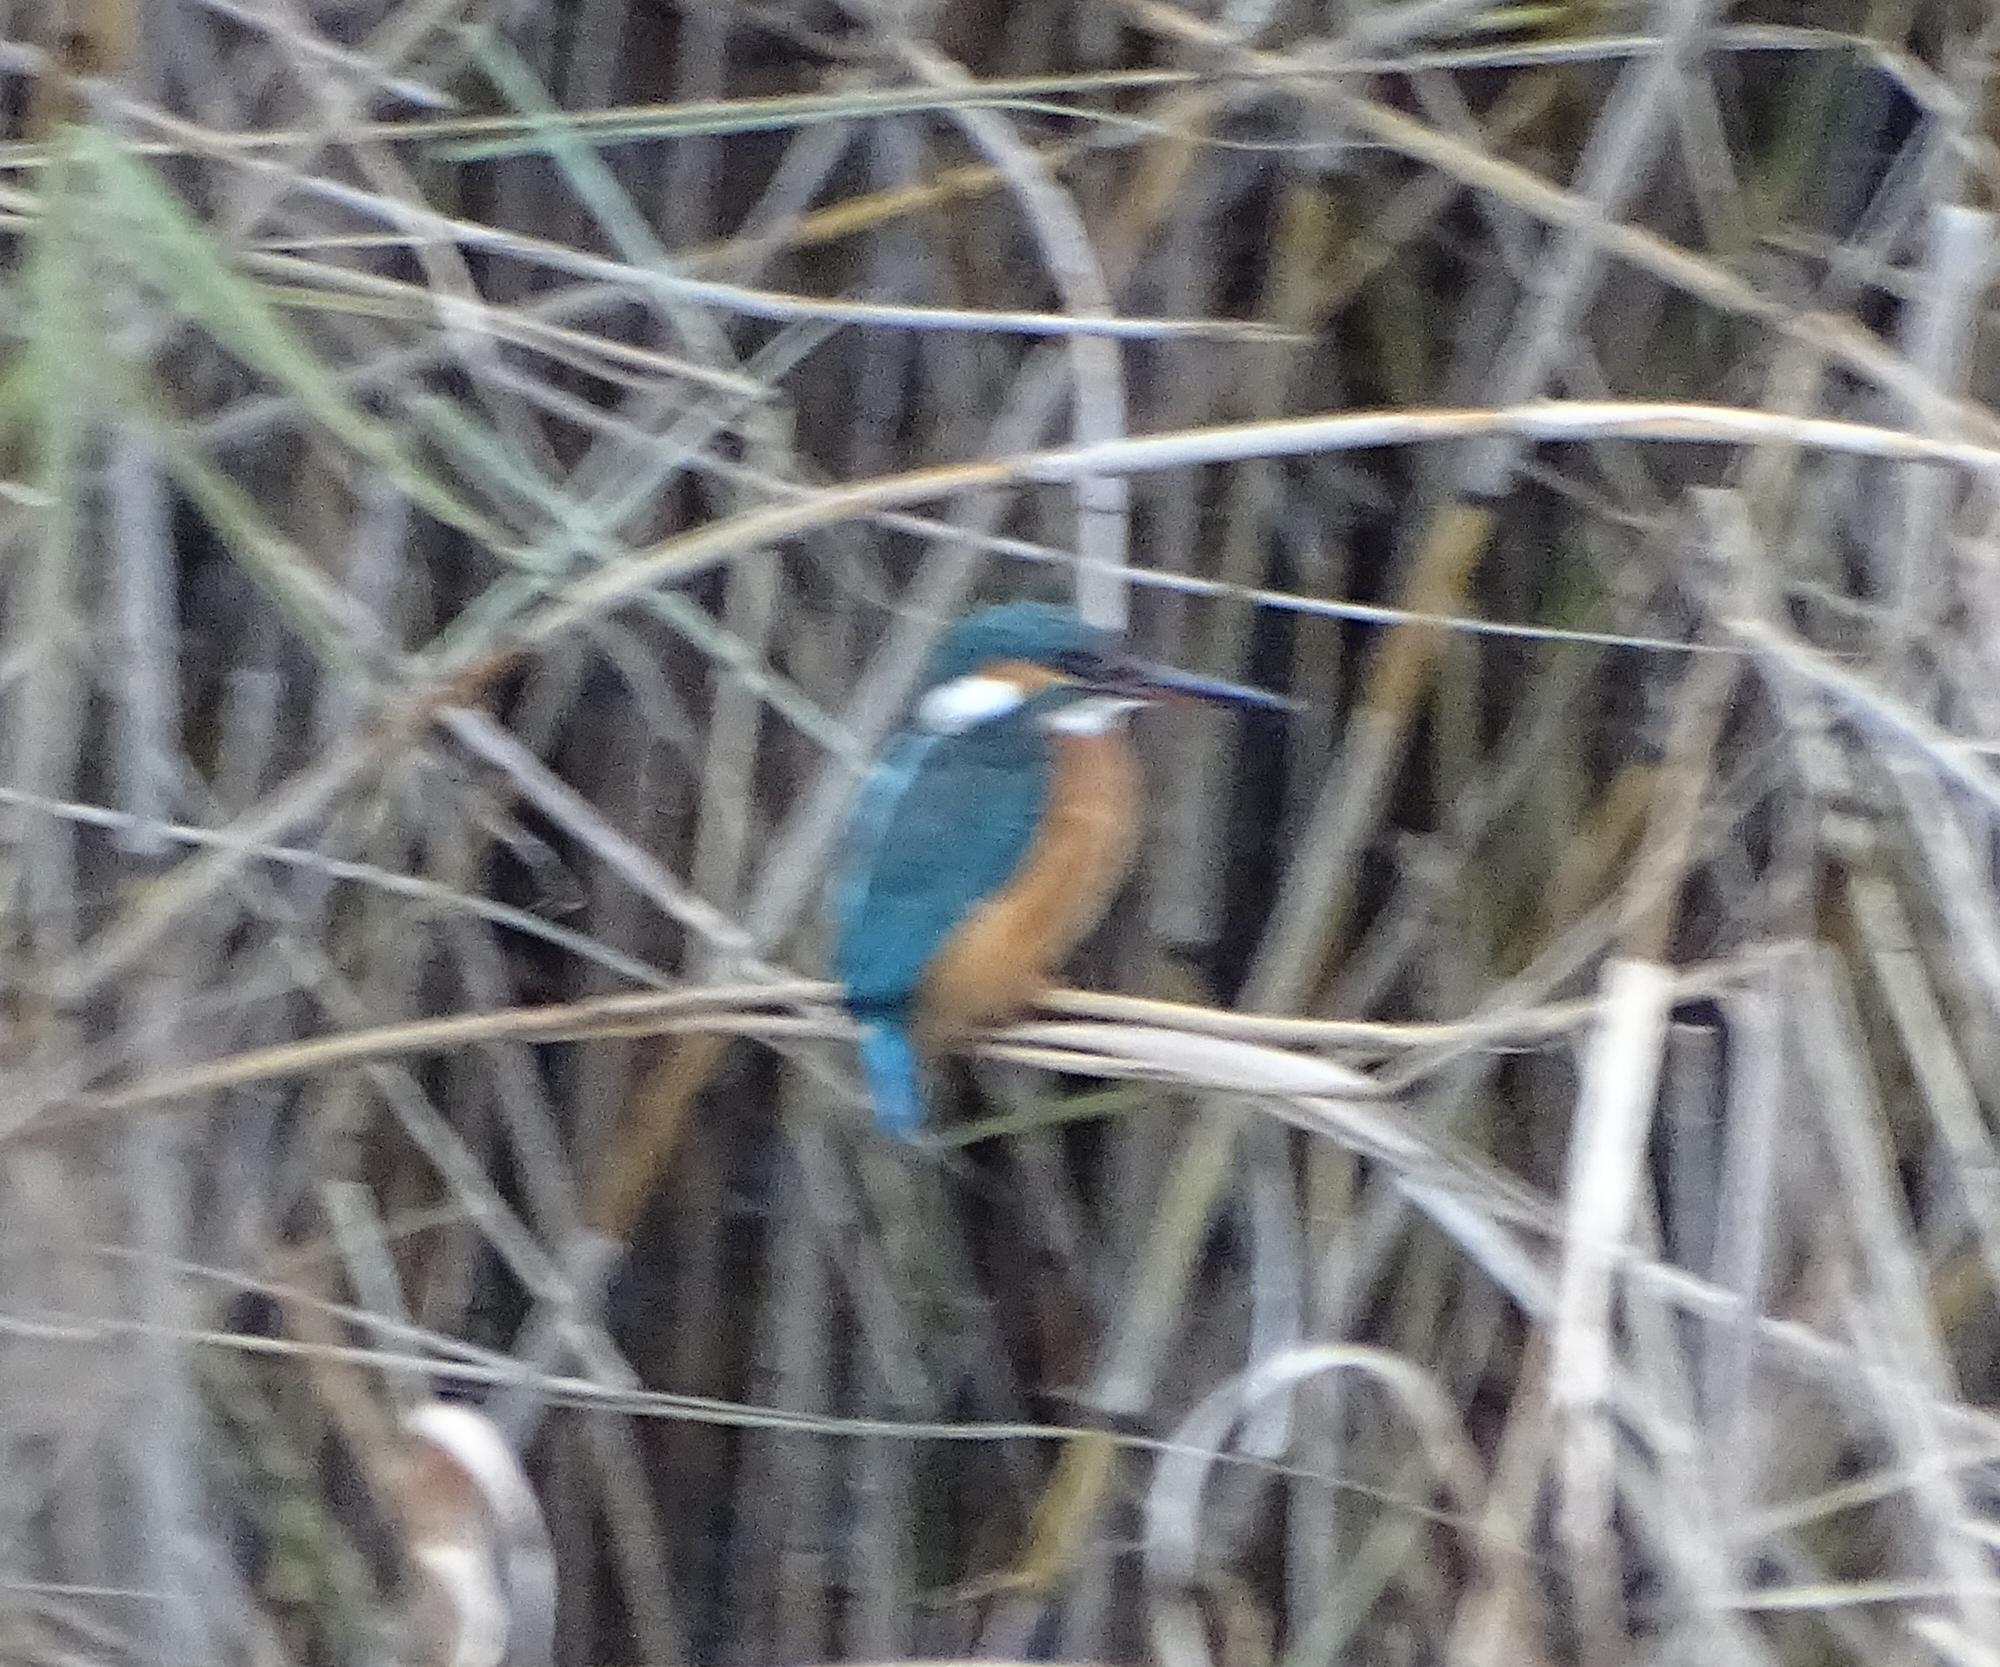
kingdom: Animalia
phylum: Chordata
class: Aves
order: Coraciiformes
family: Alcedinidae
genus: Alcedo
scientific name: Alcedo atthis
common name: Common kingfisher
